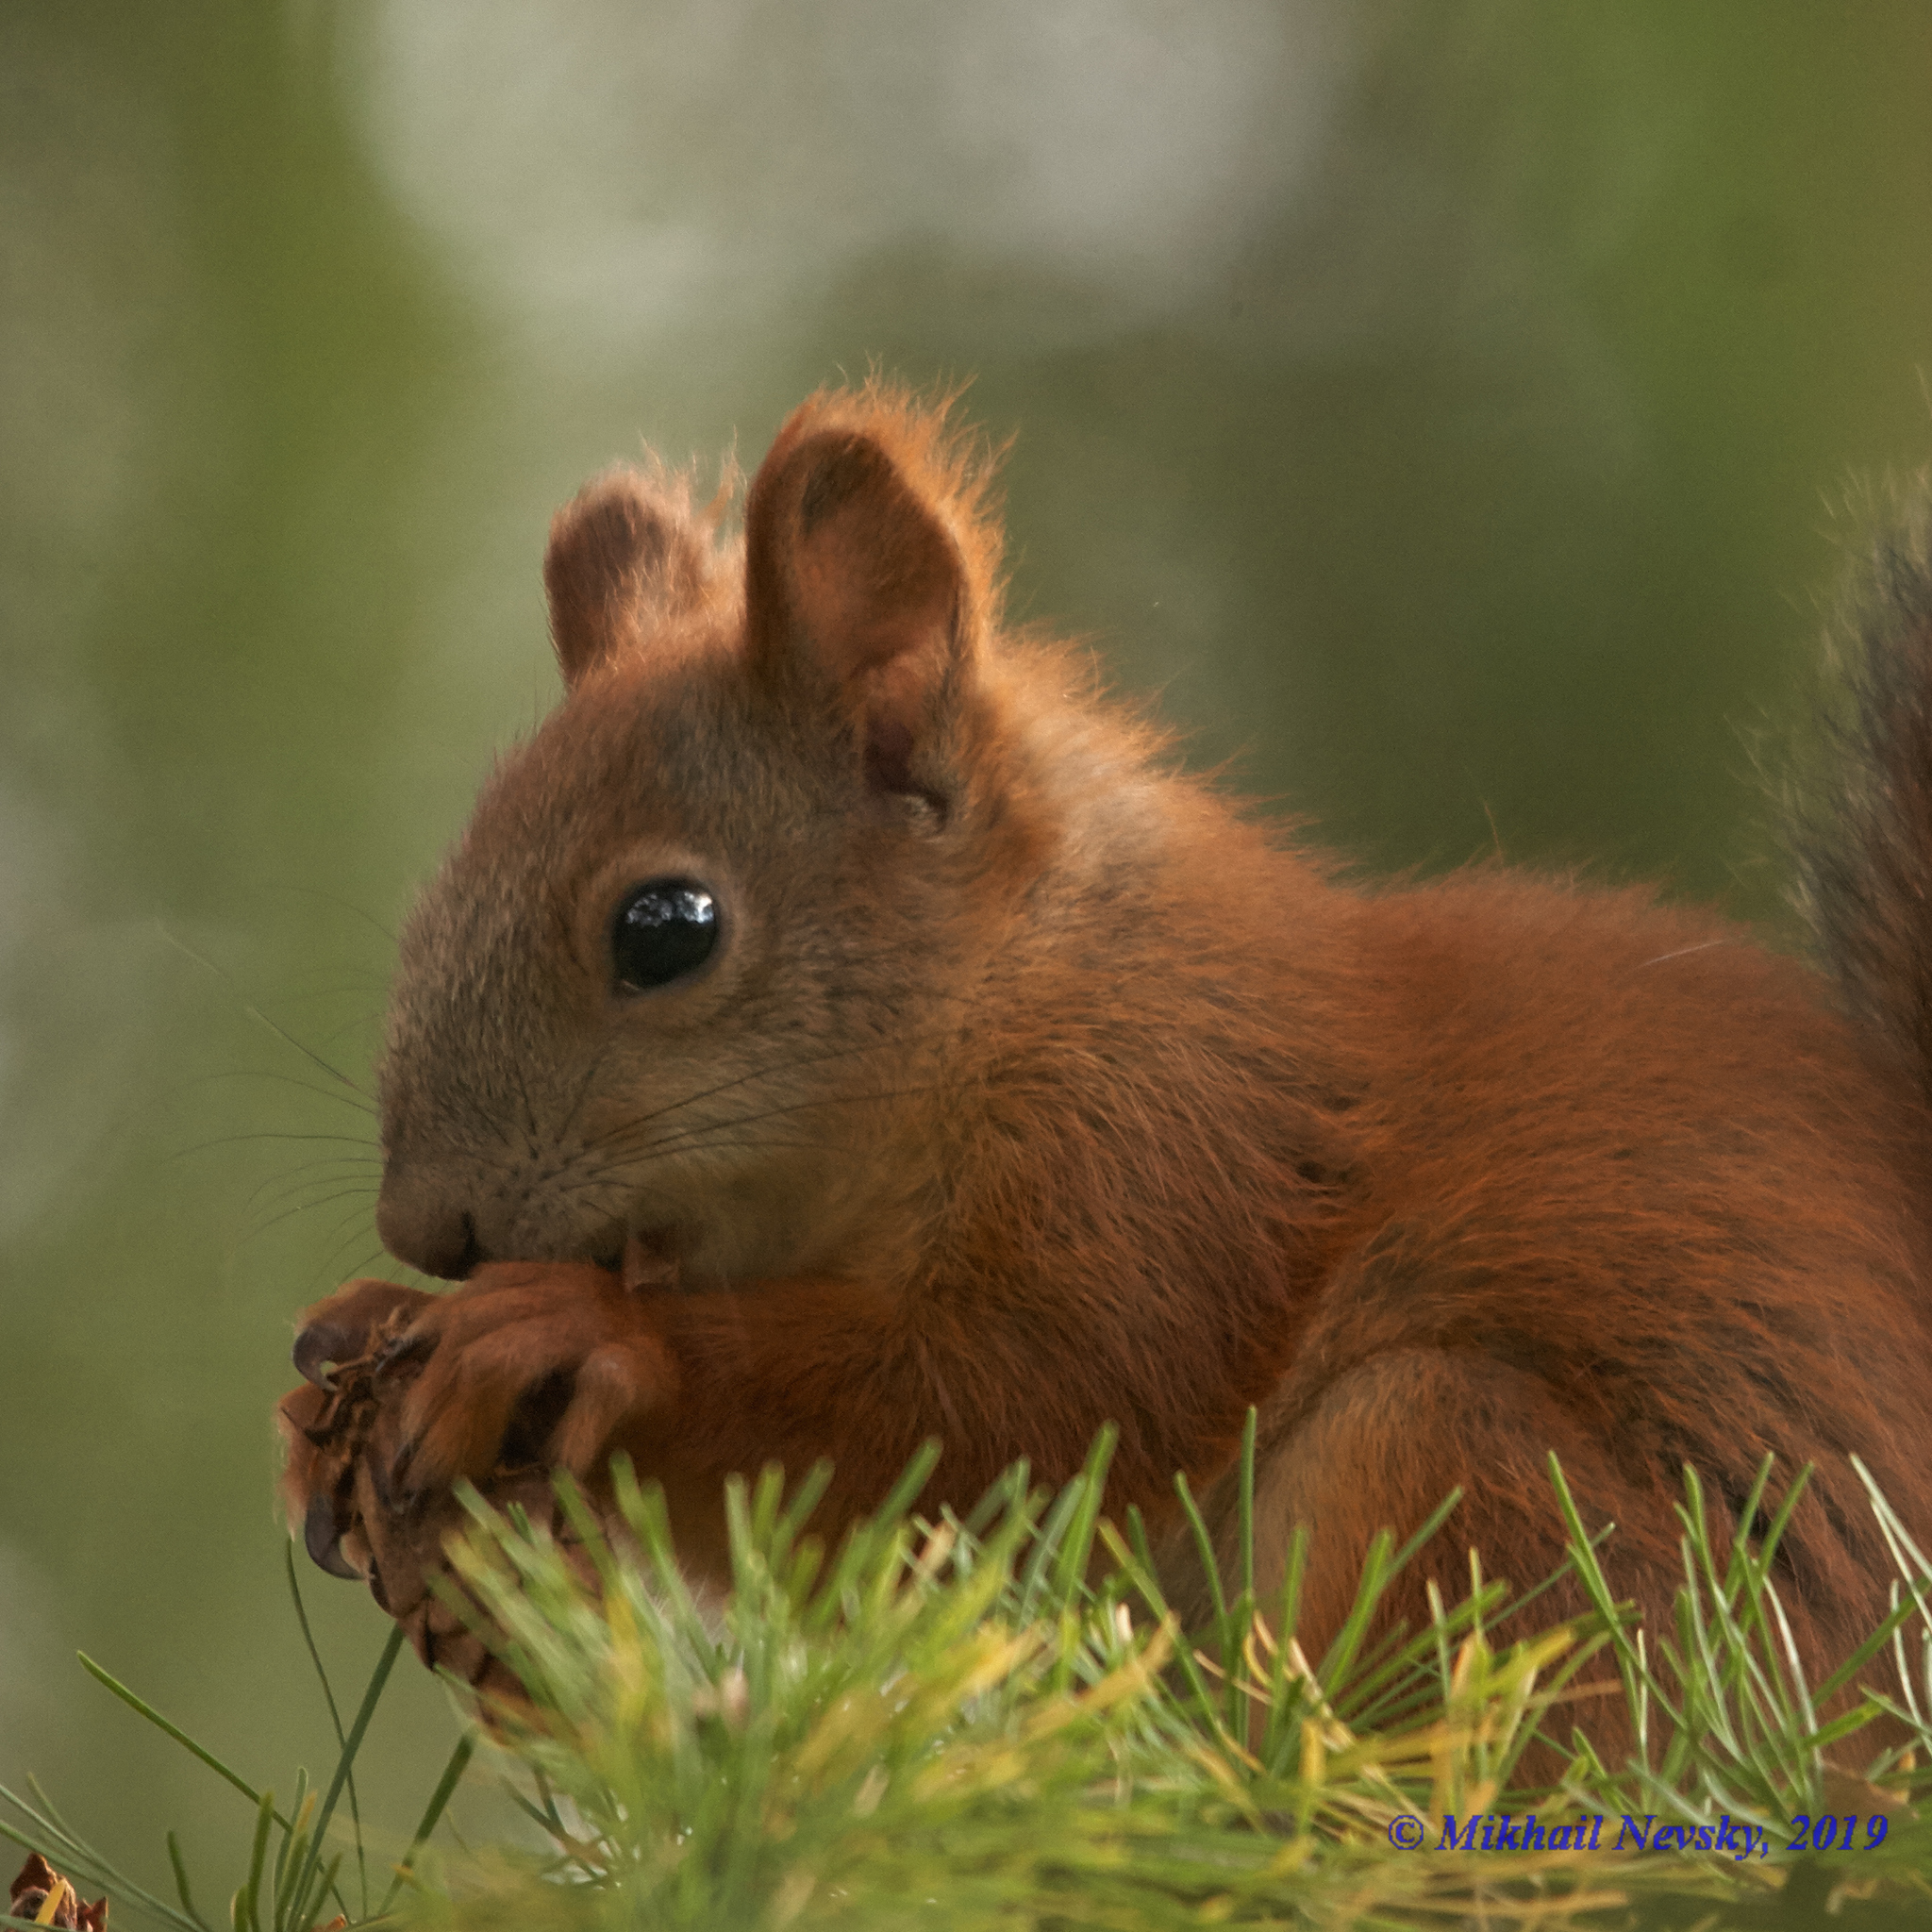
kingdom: Animalia
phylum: Chordata
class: Mammalia
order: Rodentia
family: Sciuridae
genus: Sciurus
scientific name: Sciurus vulgaris
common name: Eurasian red squirrel
